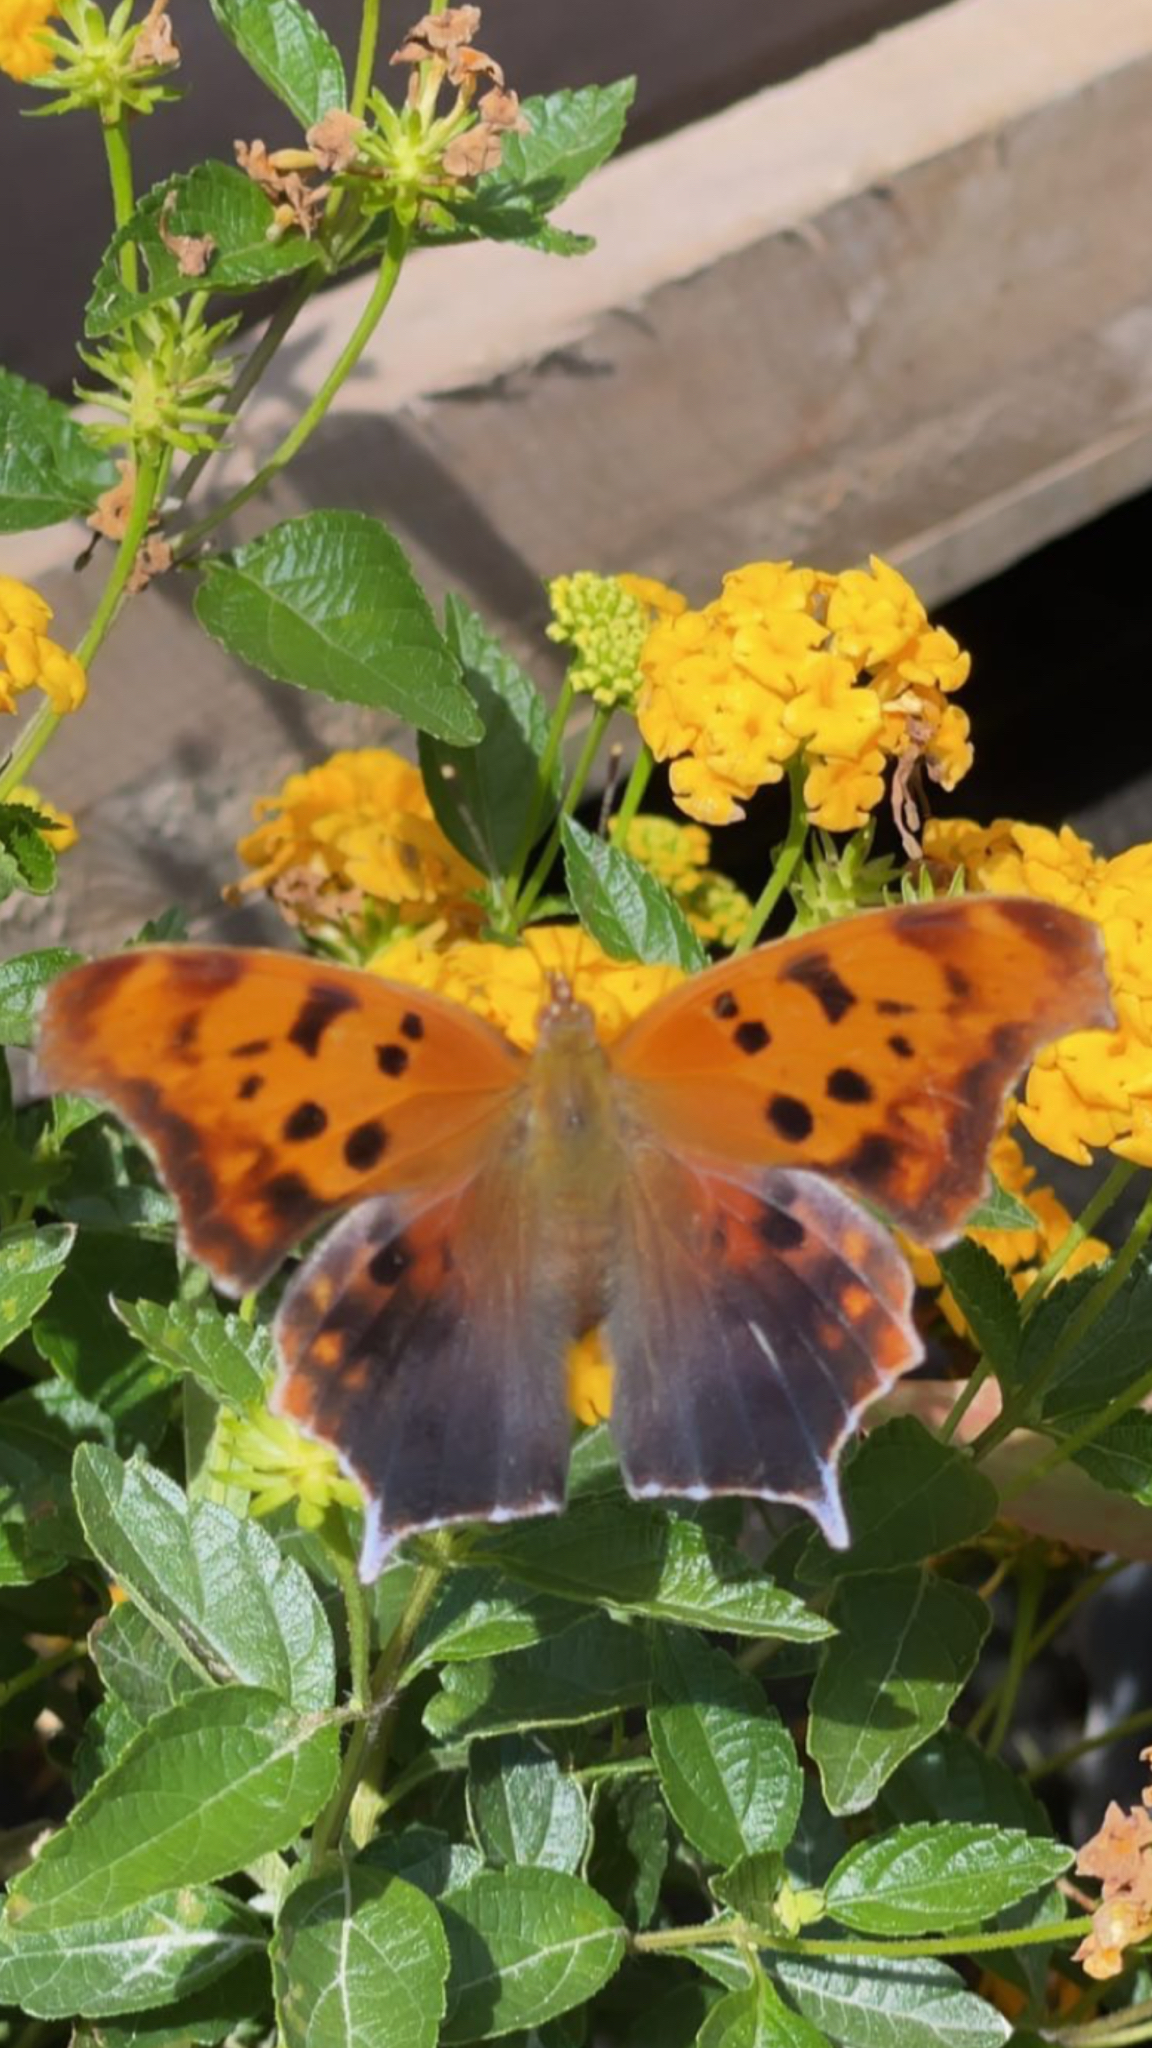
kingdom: Animalia
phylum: Arthropoda
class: Insecta
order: Lepidoptera
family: Nymphalidae
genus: Polygonia
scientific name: Polygonia interrogationis
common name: Question mark
